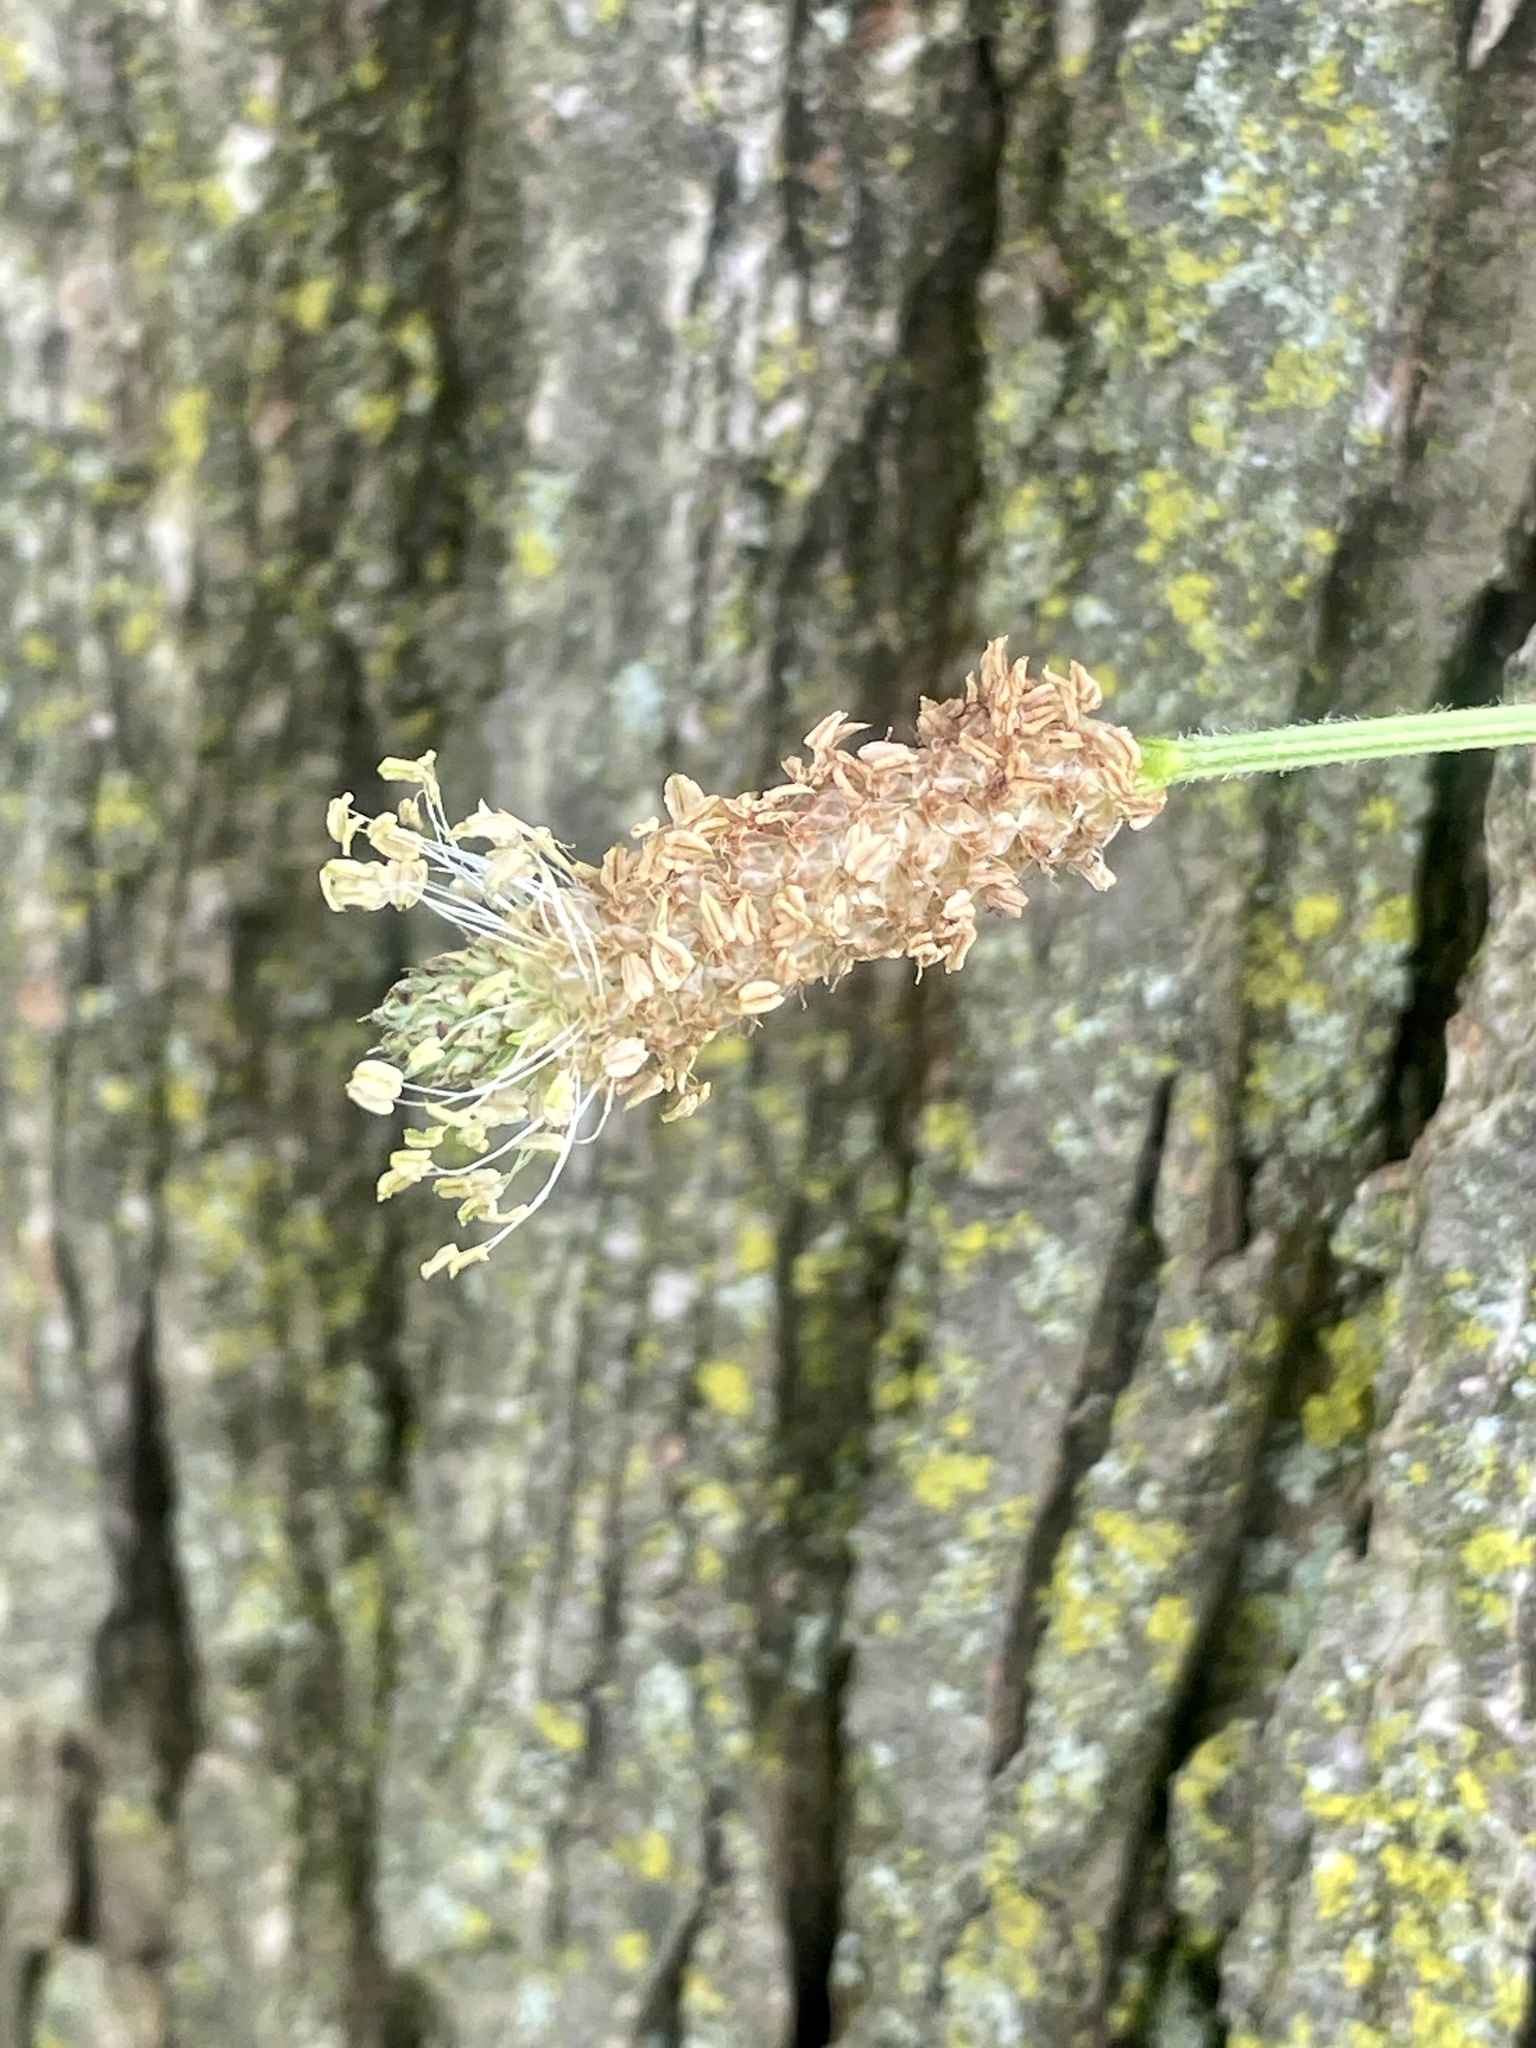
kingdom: Plantae
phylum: Tracheophyta
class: Magnoliopsida
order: Lamiales
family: Plantaginaceae
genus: Plantago
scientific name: Plantago lanceolata
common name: Ribwort plantain
